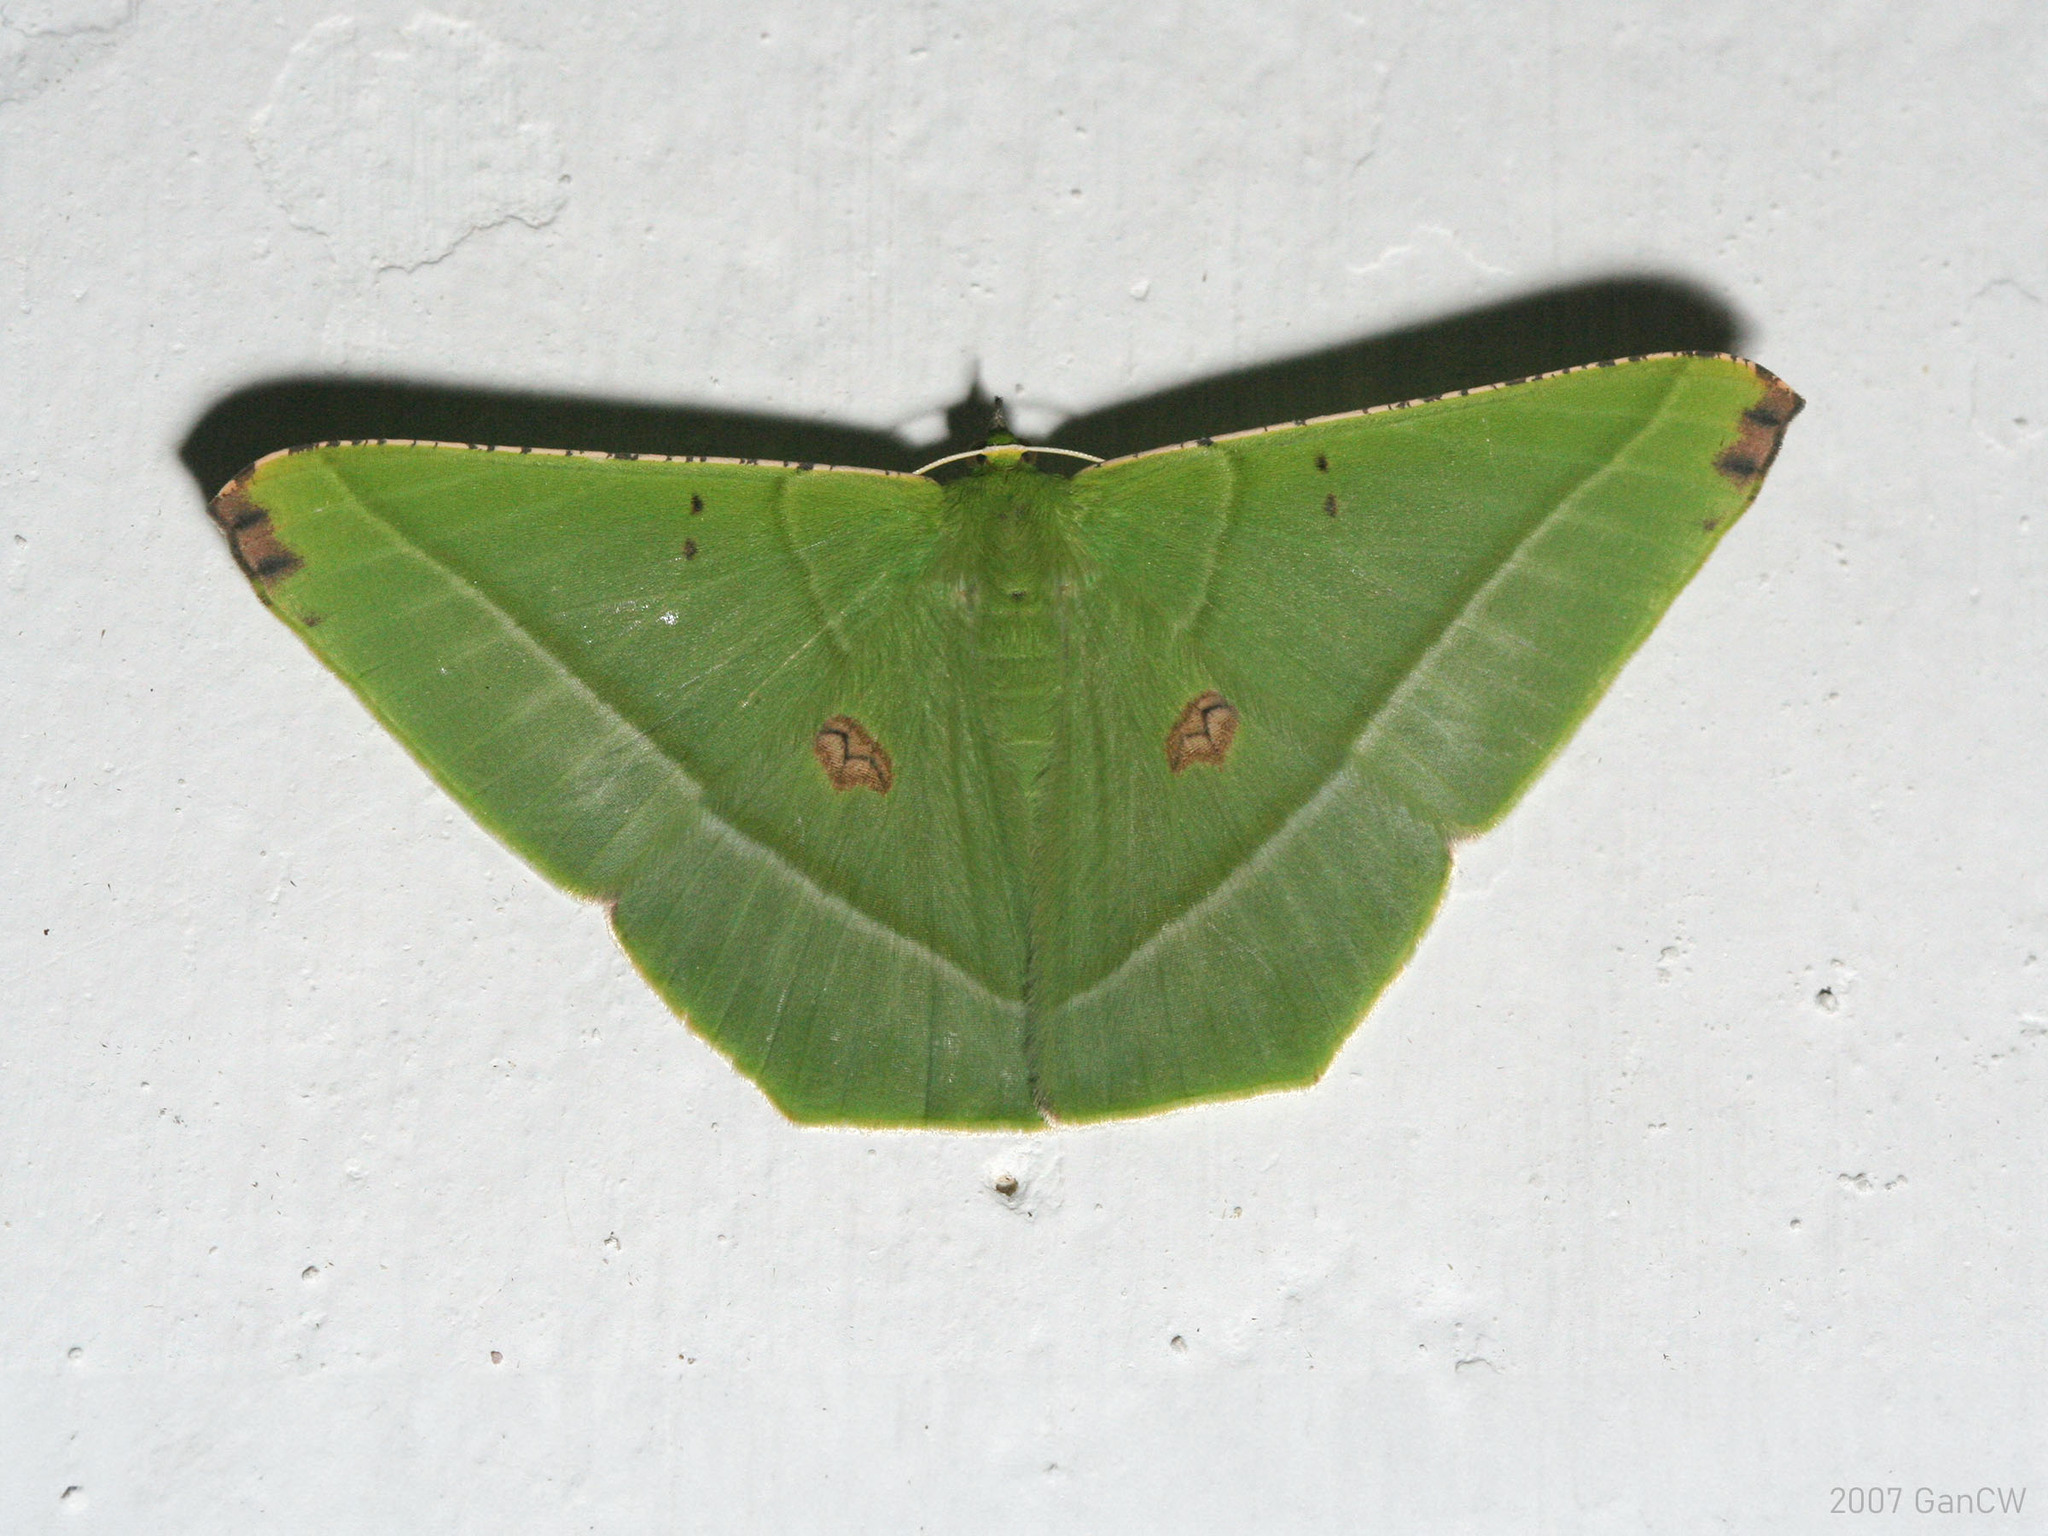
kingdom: Animalia
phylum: Arthropoda
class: Insecta
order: Lepidoptera
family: Geometridae
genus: Ornithospila
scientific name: Ornithospila esmeralda
